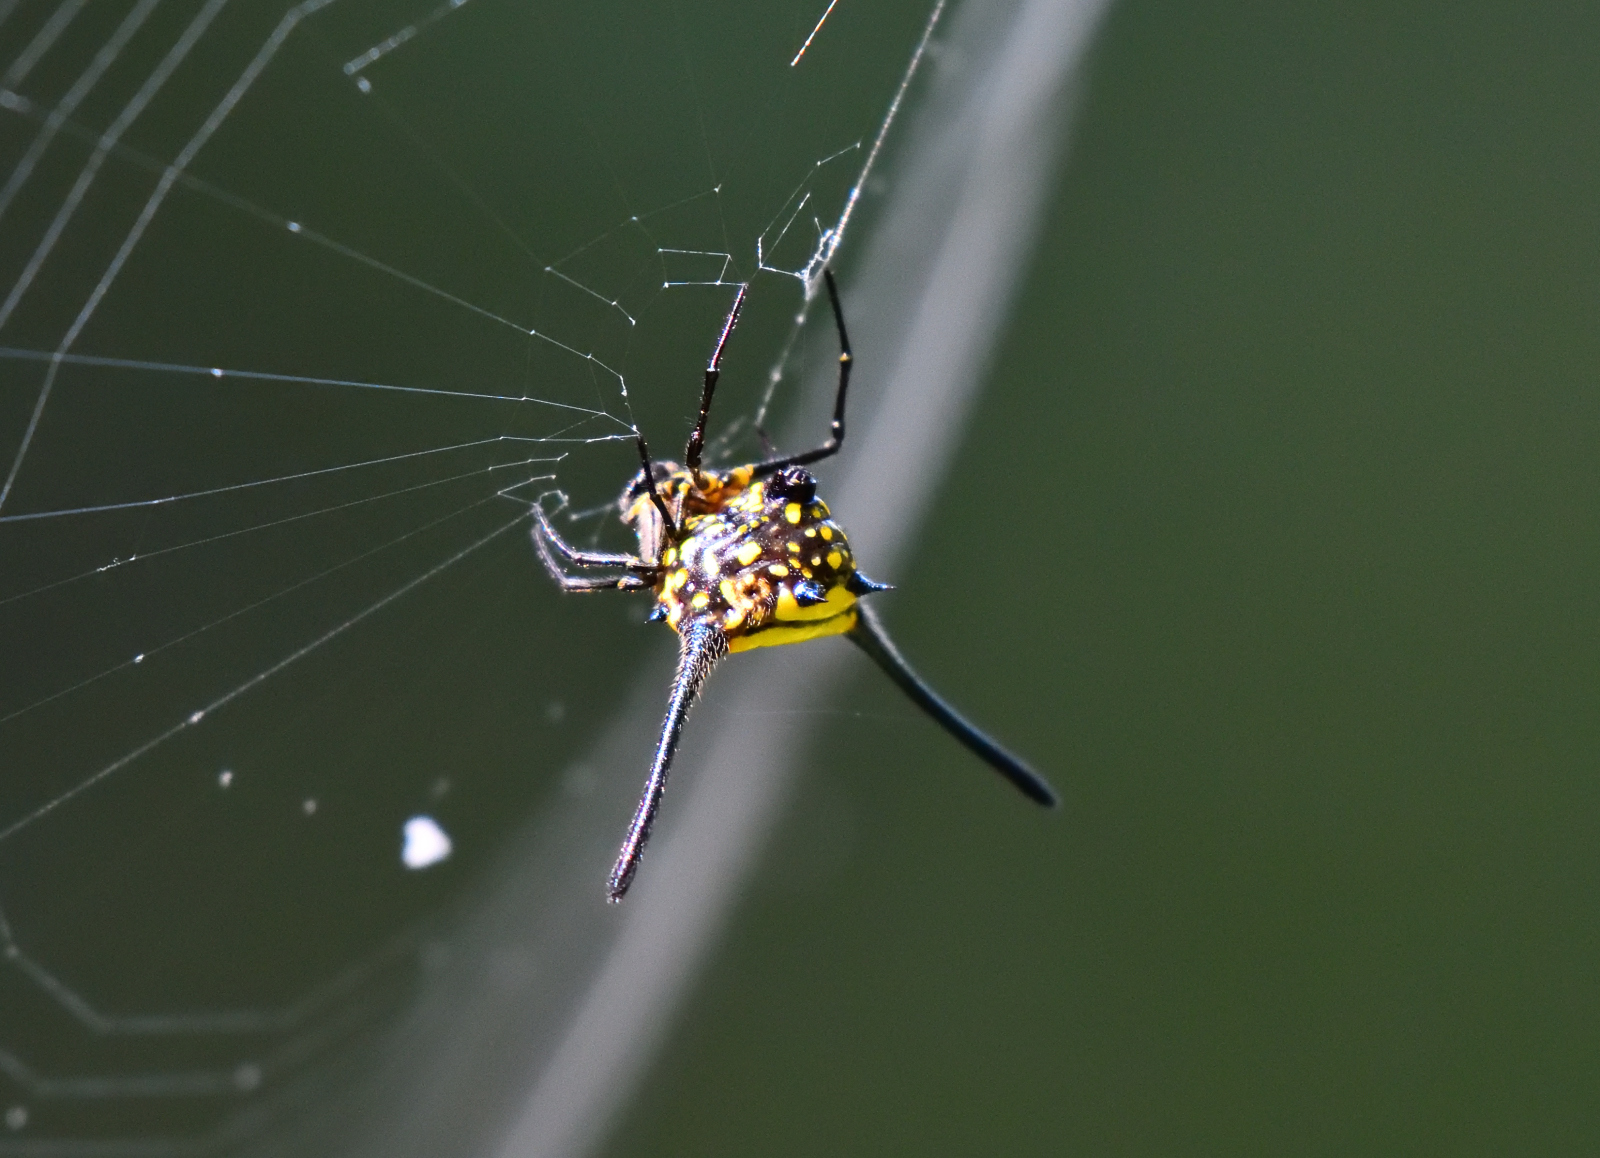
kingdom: Animalia
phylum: Arthropoda
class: Arachnida
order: Araneae
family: Araneidae
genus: Gasteracantha
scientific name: Gasteracantha dalyi
